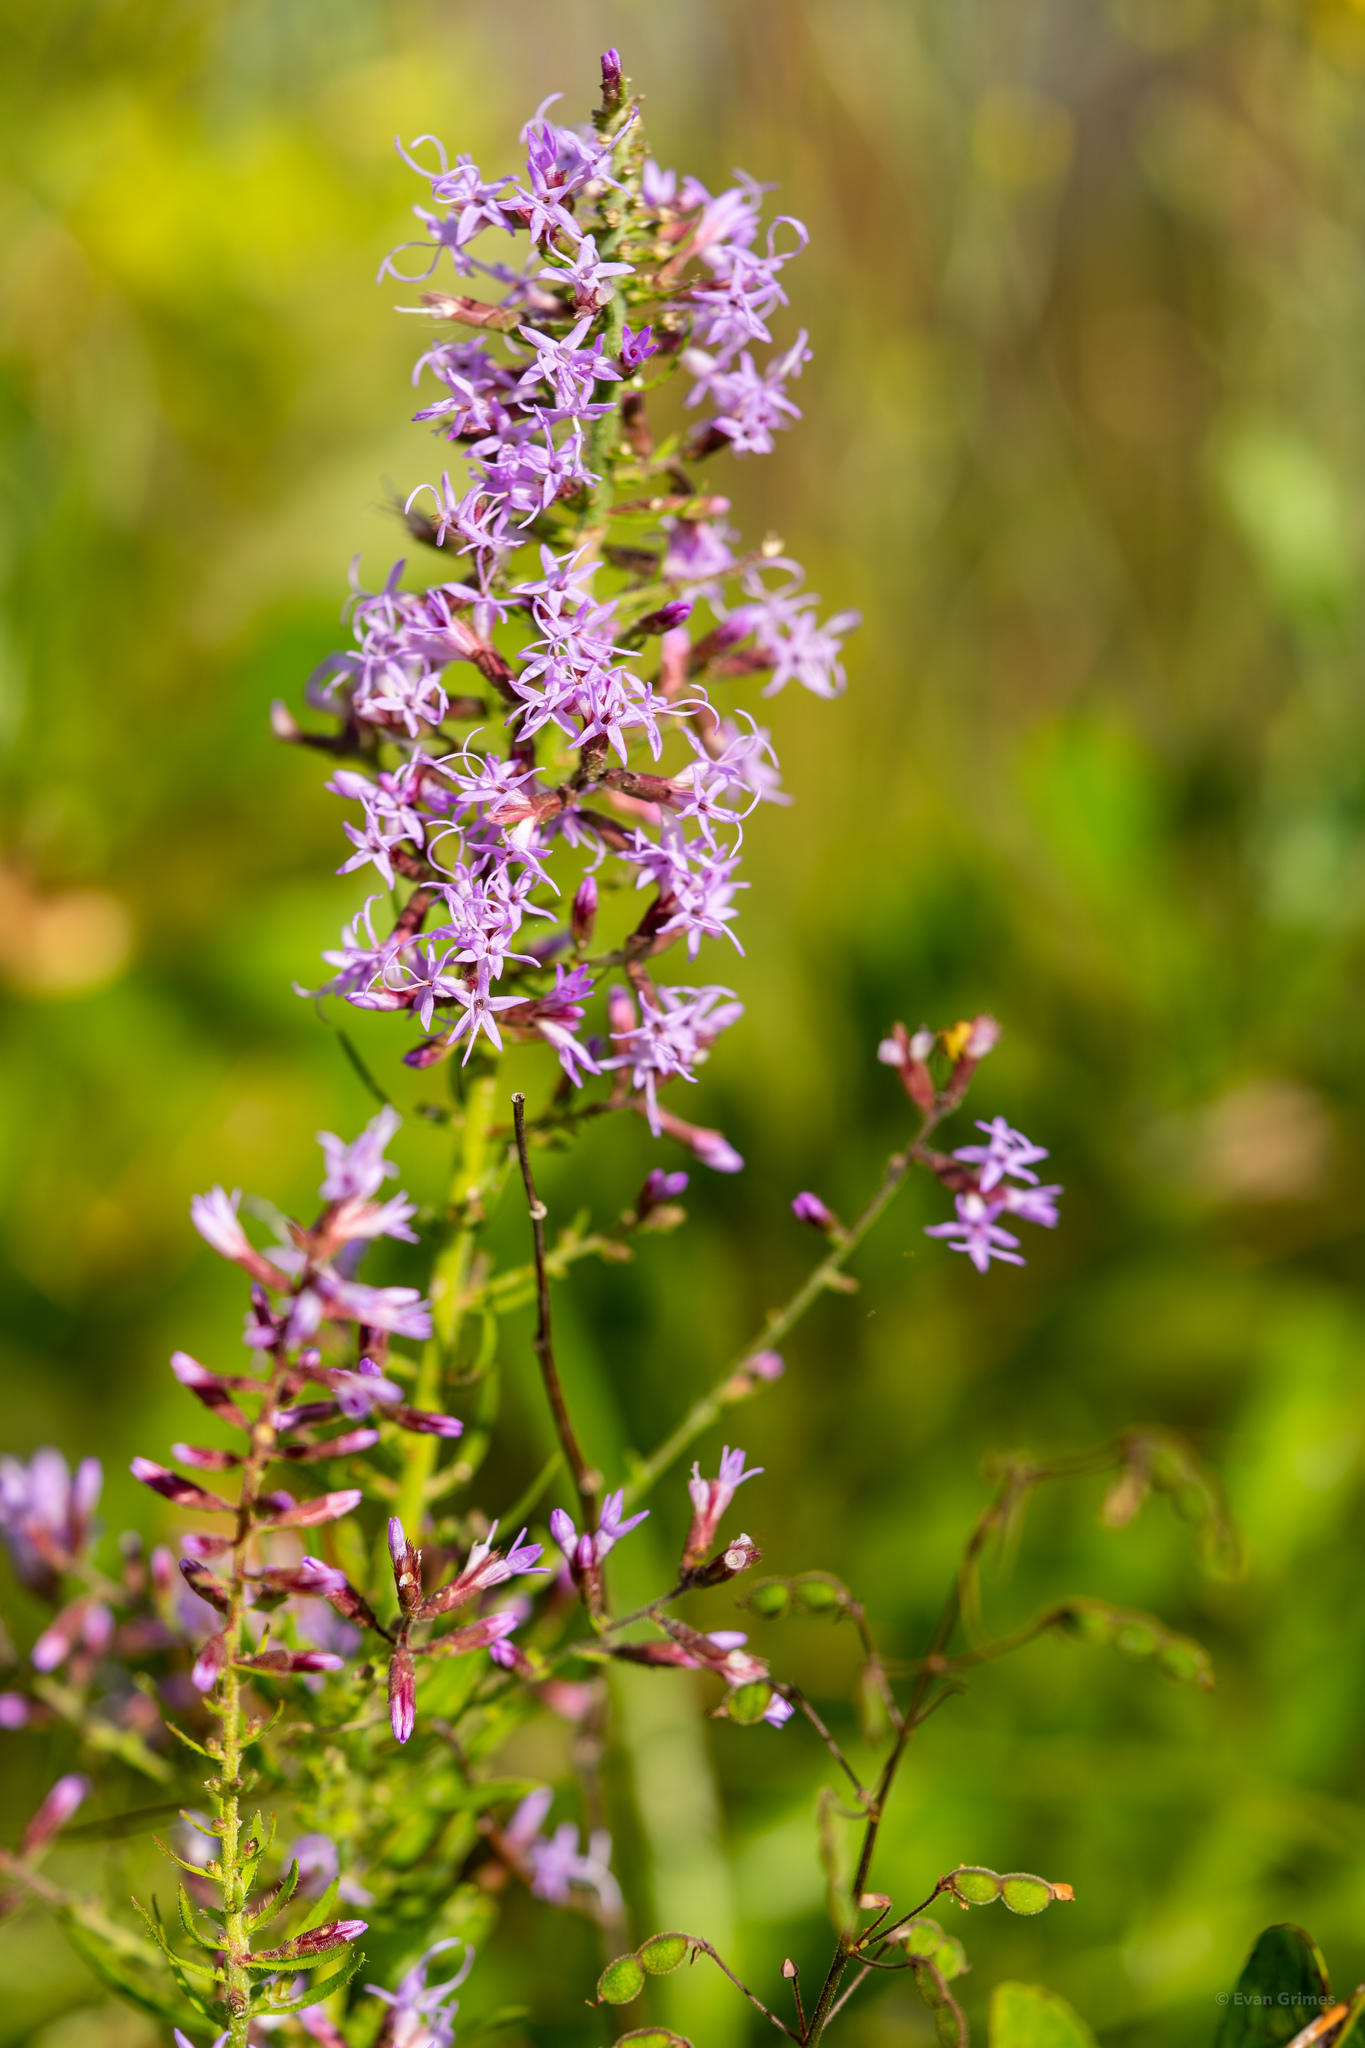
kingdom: Plantae
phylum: Tracheophyta
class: Magnoliopsida
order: Asterales
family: Asteraceae
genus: Liatris
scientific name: Liatris gracilis
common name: Slender gayfeather
